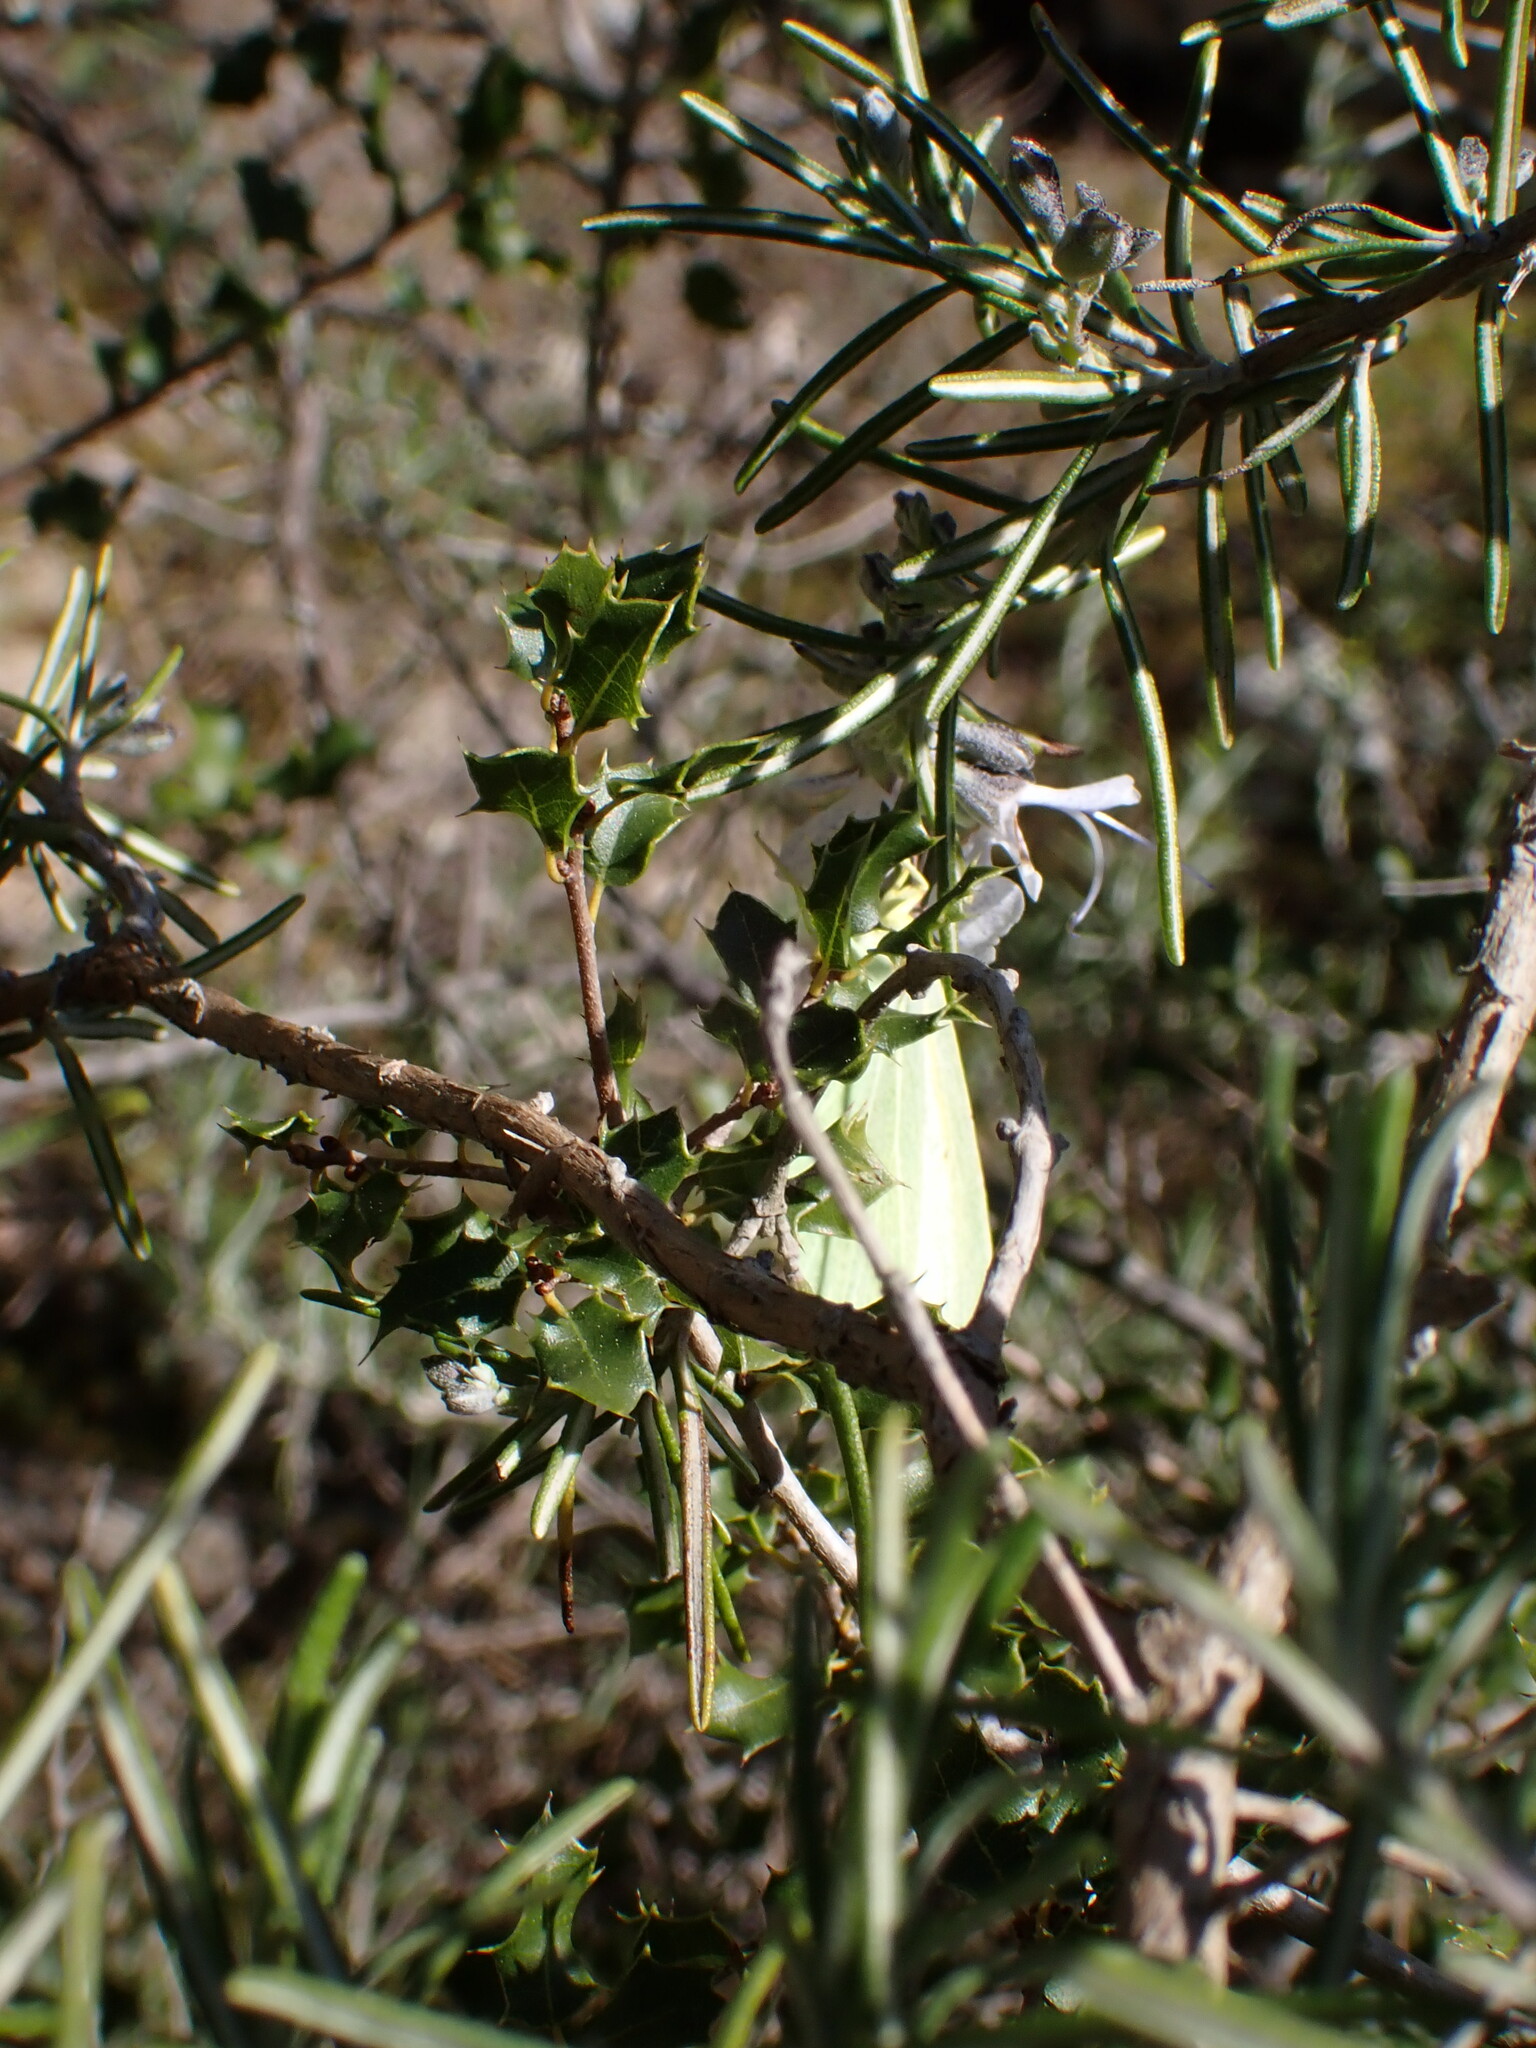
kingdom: Animalia
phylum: Arthropoda
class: Insecta
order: Lepidoptera
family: Pieridae
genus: Gonepteryx
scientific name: Gonepteryx cleopatra
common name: Cleopatra
